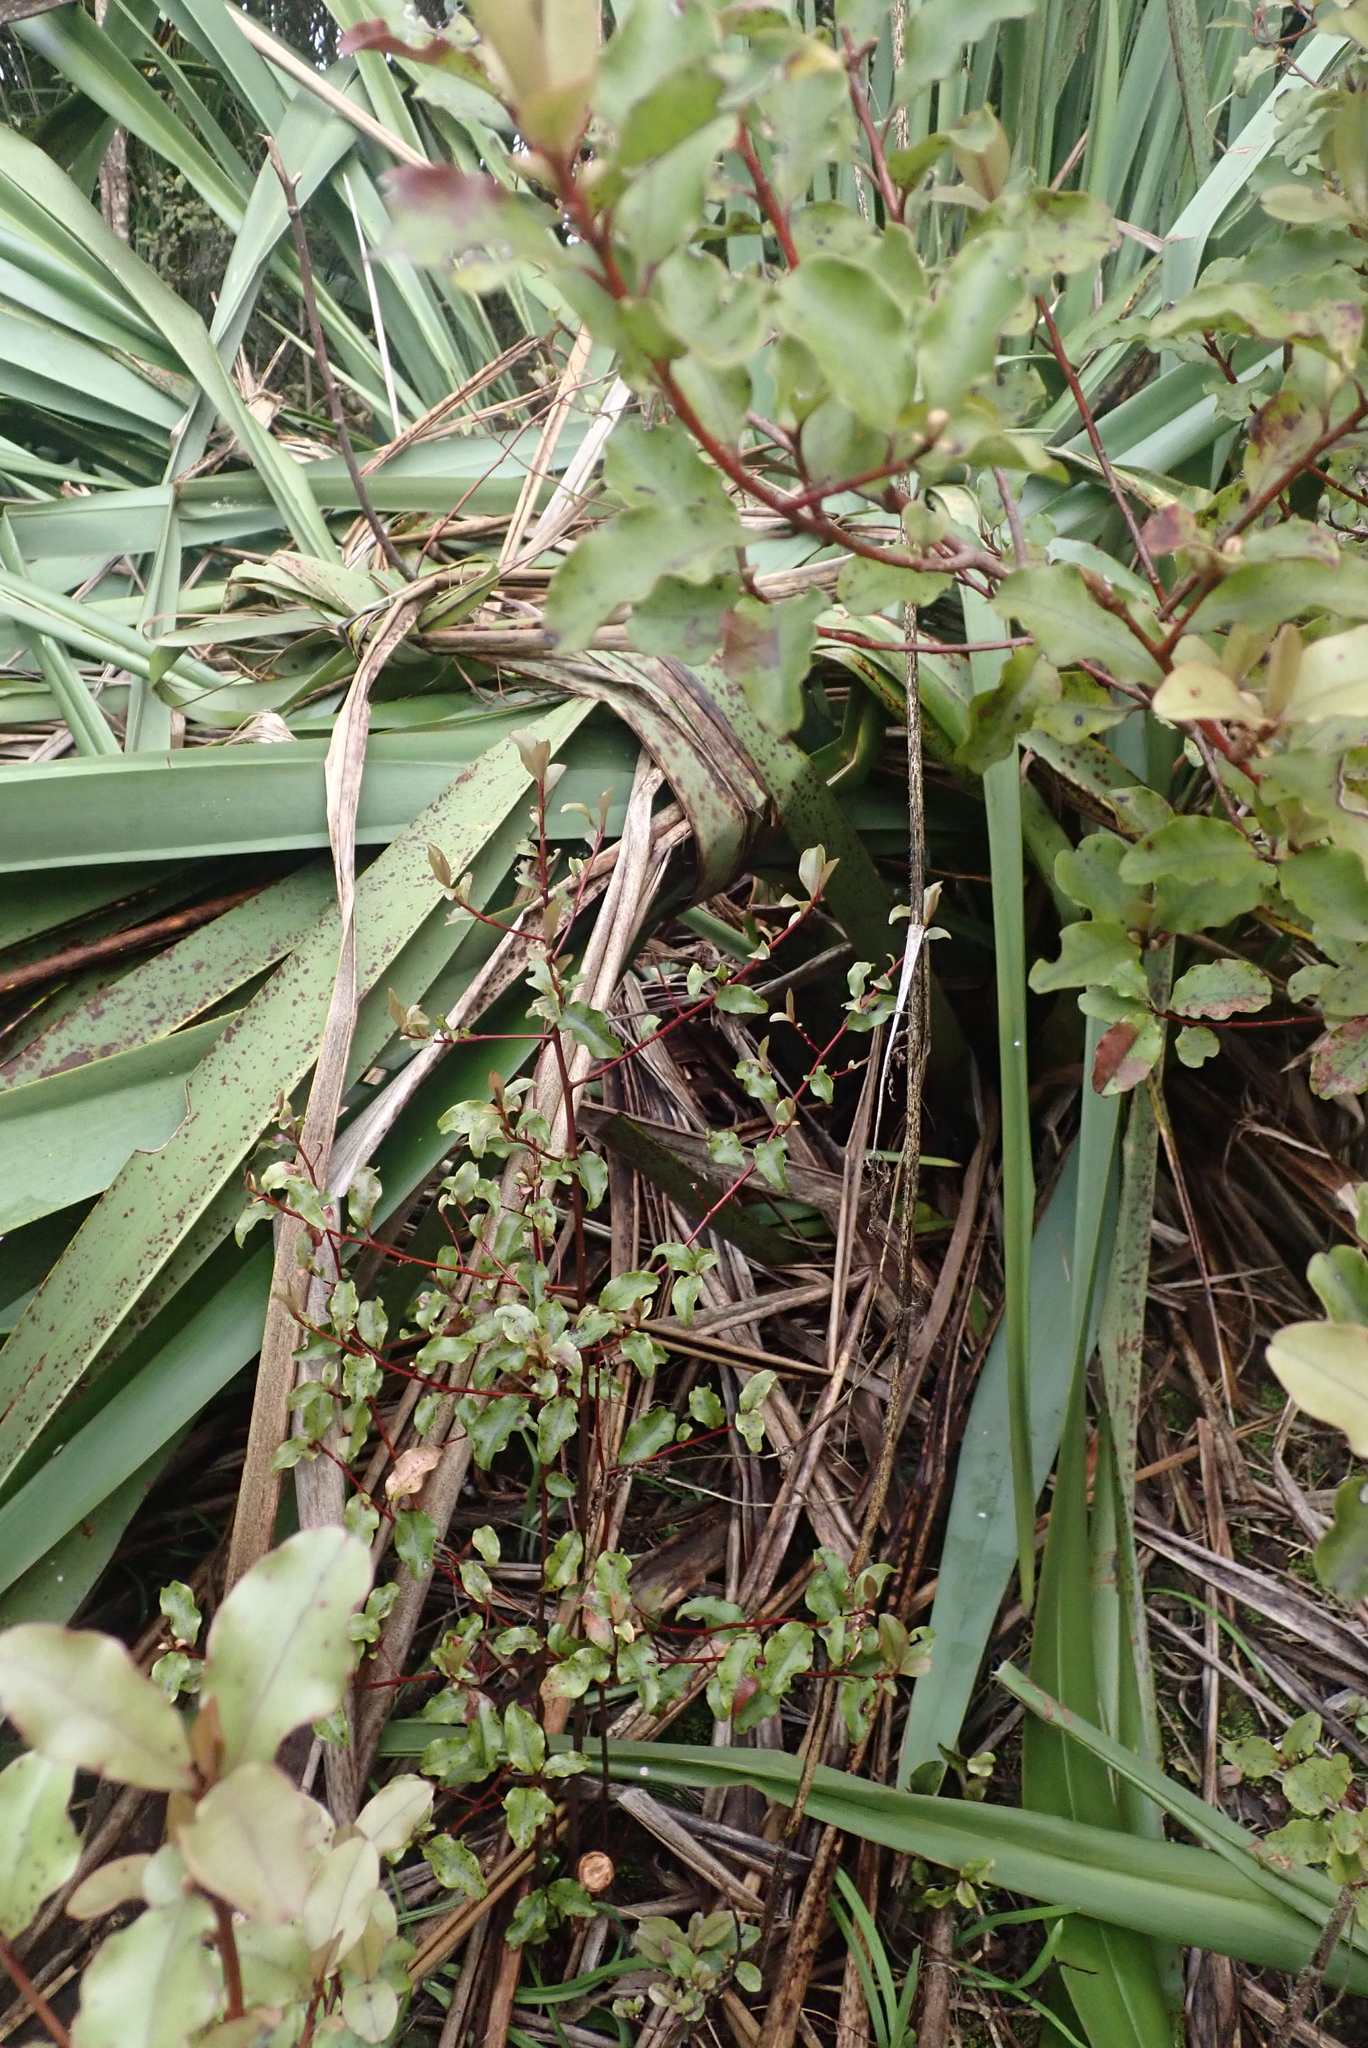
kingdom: Plantae
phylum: Tracheophyta
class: Magnoliopsida
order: Ericales
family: Primulaceae
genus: Myrsine
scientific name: Myrsine australis
